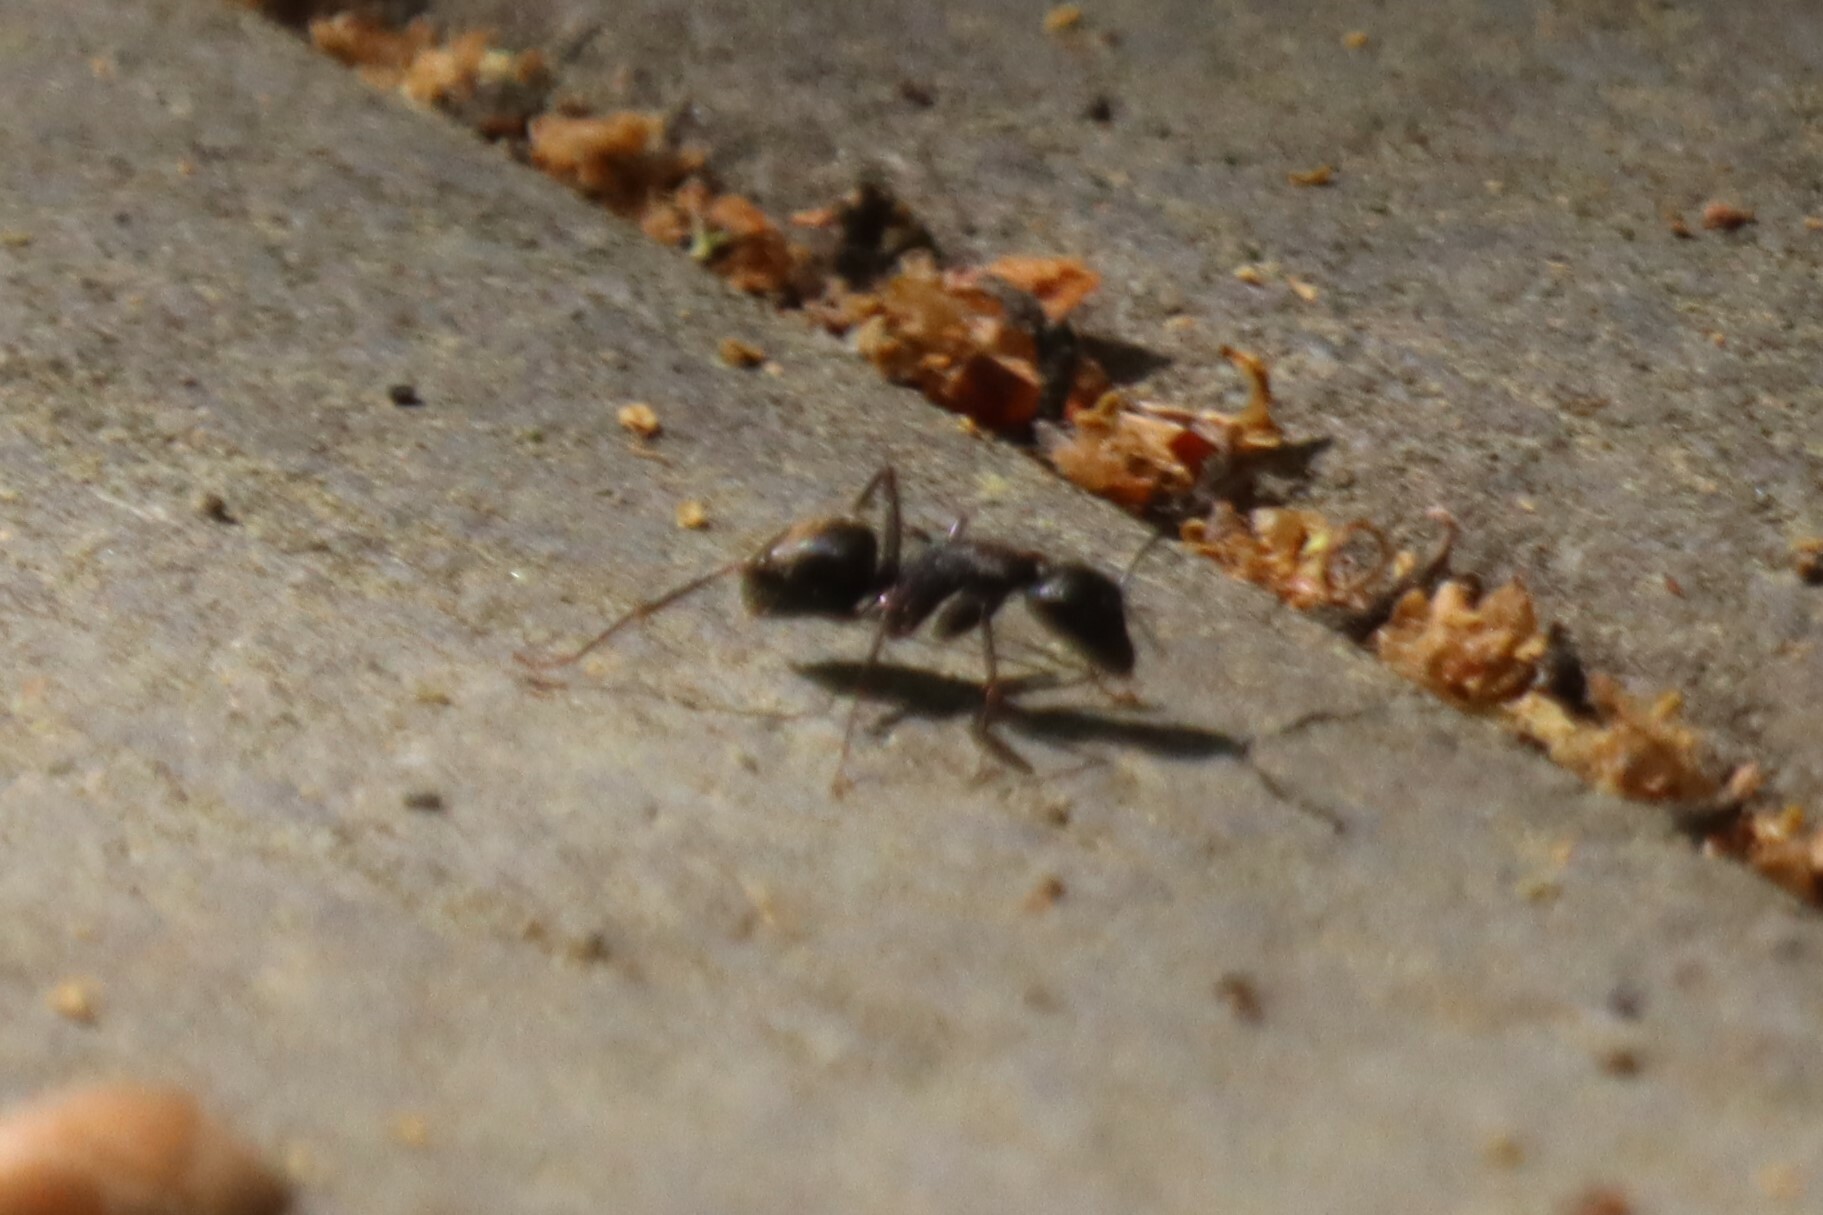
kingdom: Animalia
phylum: Arthropoda
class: Insecta
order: Hymenoptera
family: Formicidae
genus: Camponotus
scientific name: Camponotus pennsylvanicus
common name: Black carpenter ant
